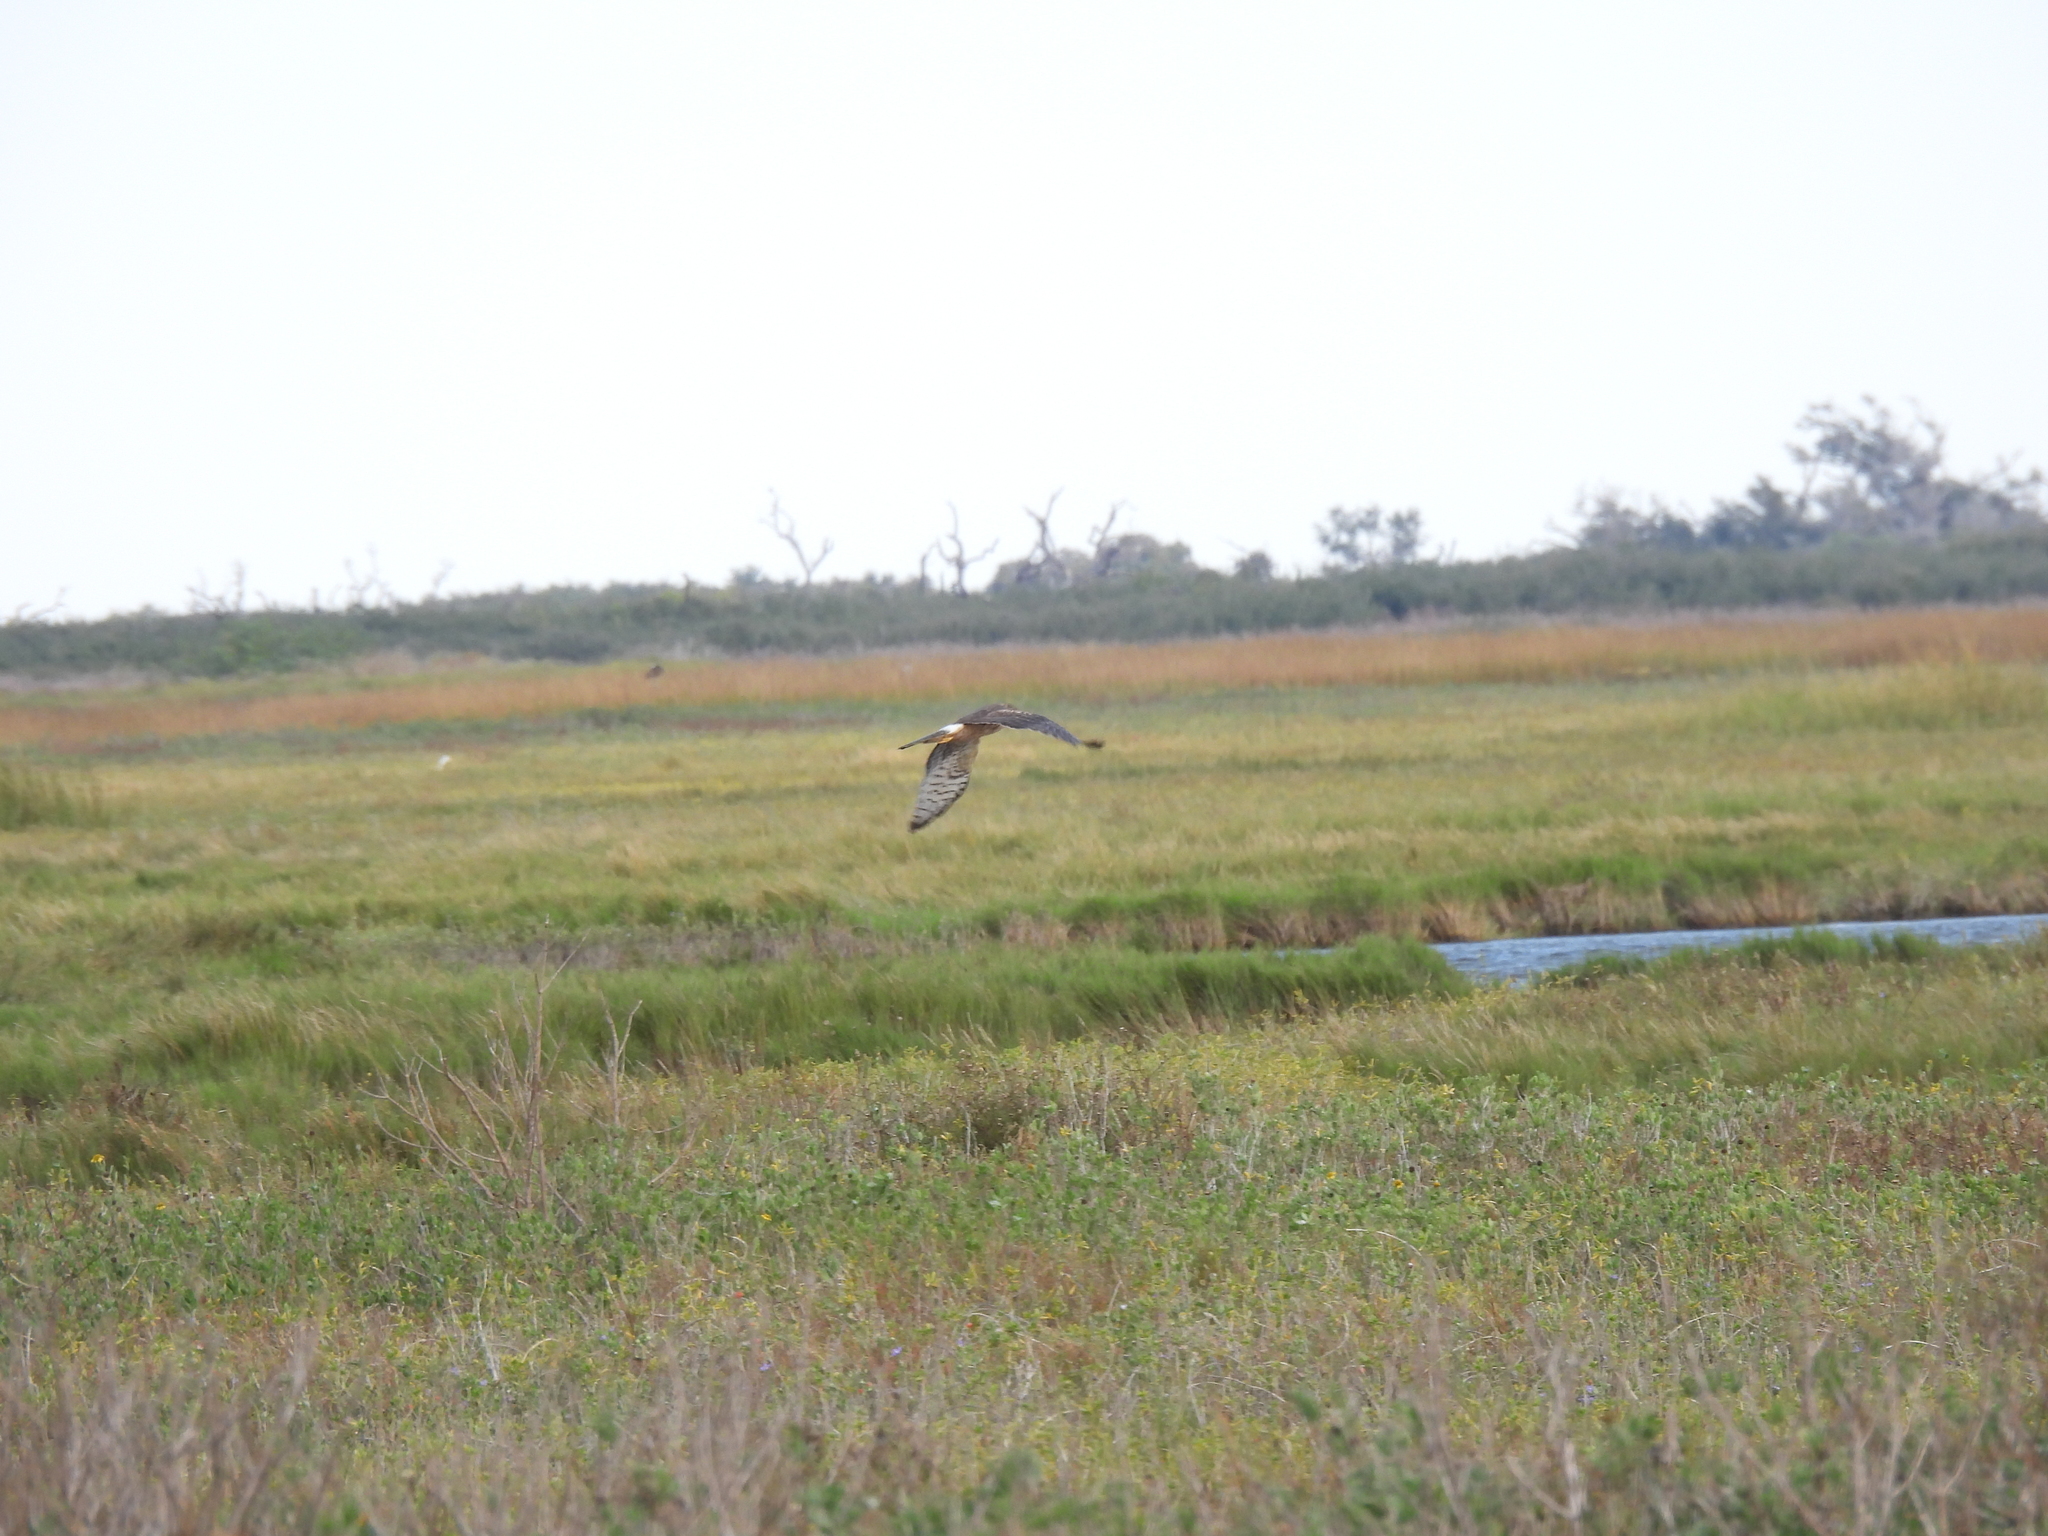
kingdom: Animalia
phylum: Chordata
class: Aves
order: Accipitriformes
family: Accipitridae
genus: Circus
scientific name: Circus cyaneus
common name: Hen harrier
